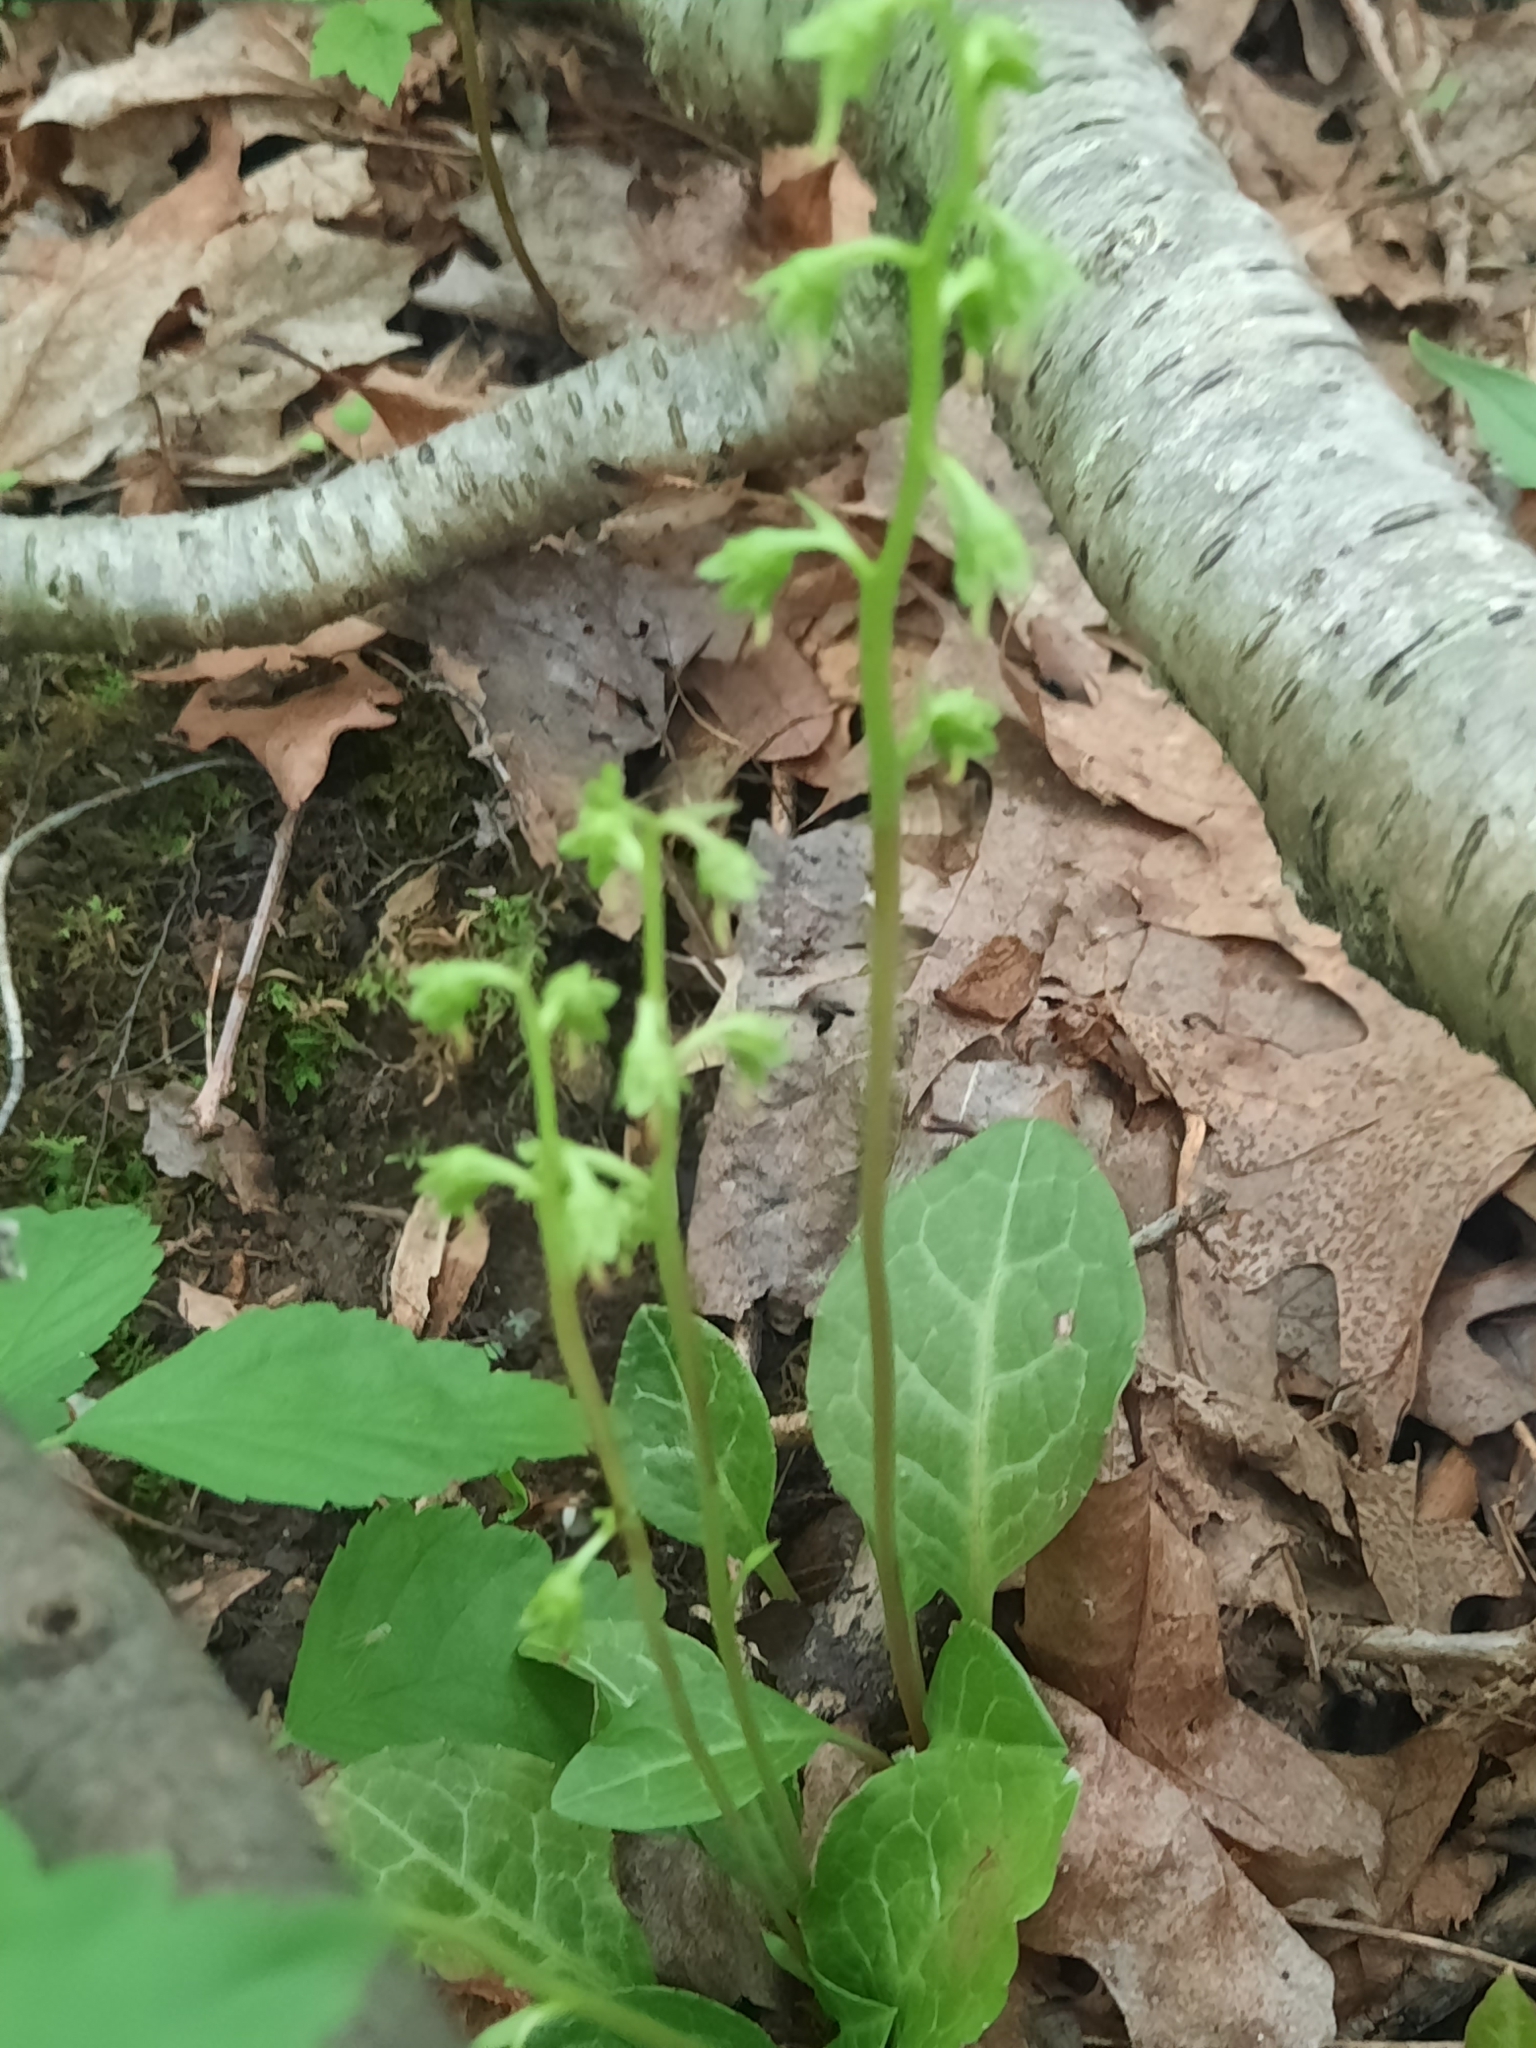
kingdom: Plantae
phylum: Tracheophyta
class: Magnoliopsida
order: Ericales
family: Ericaceae
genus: Pyrola
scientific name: Pyrola americana
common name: American wintergreen
